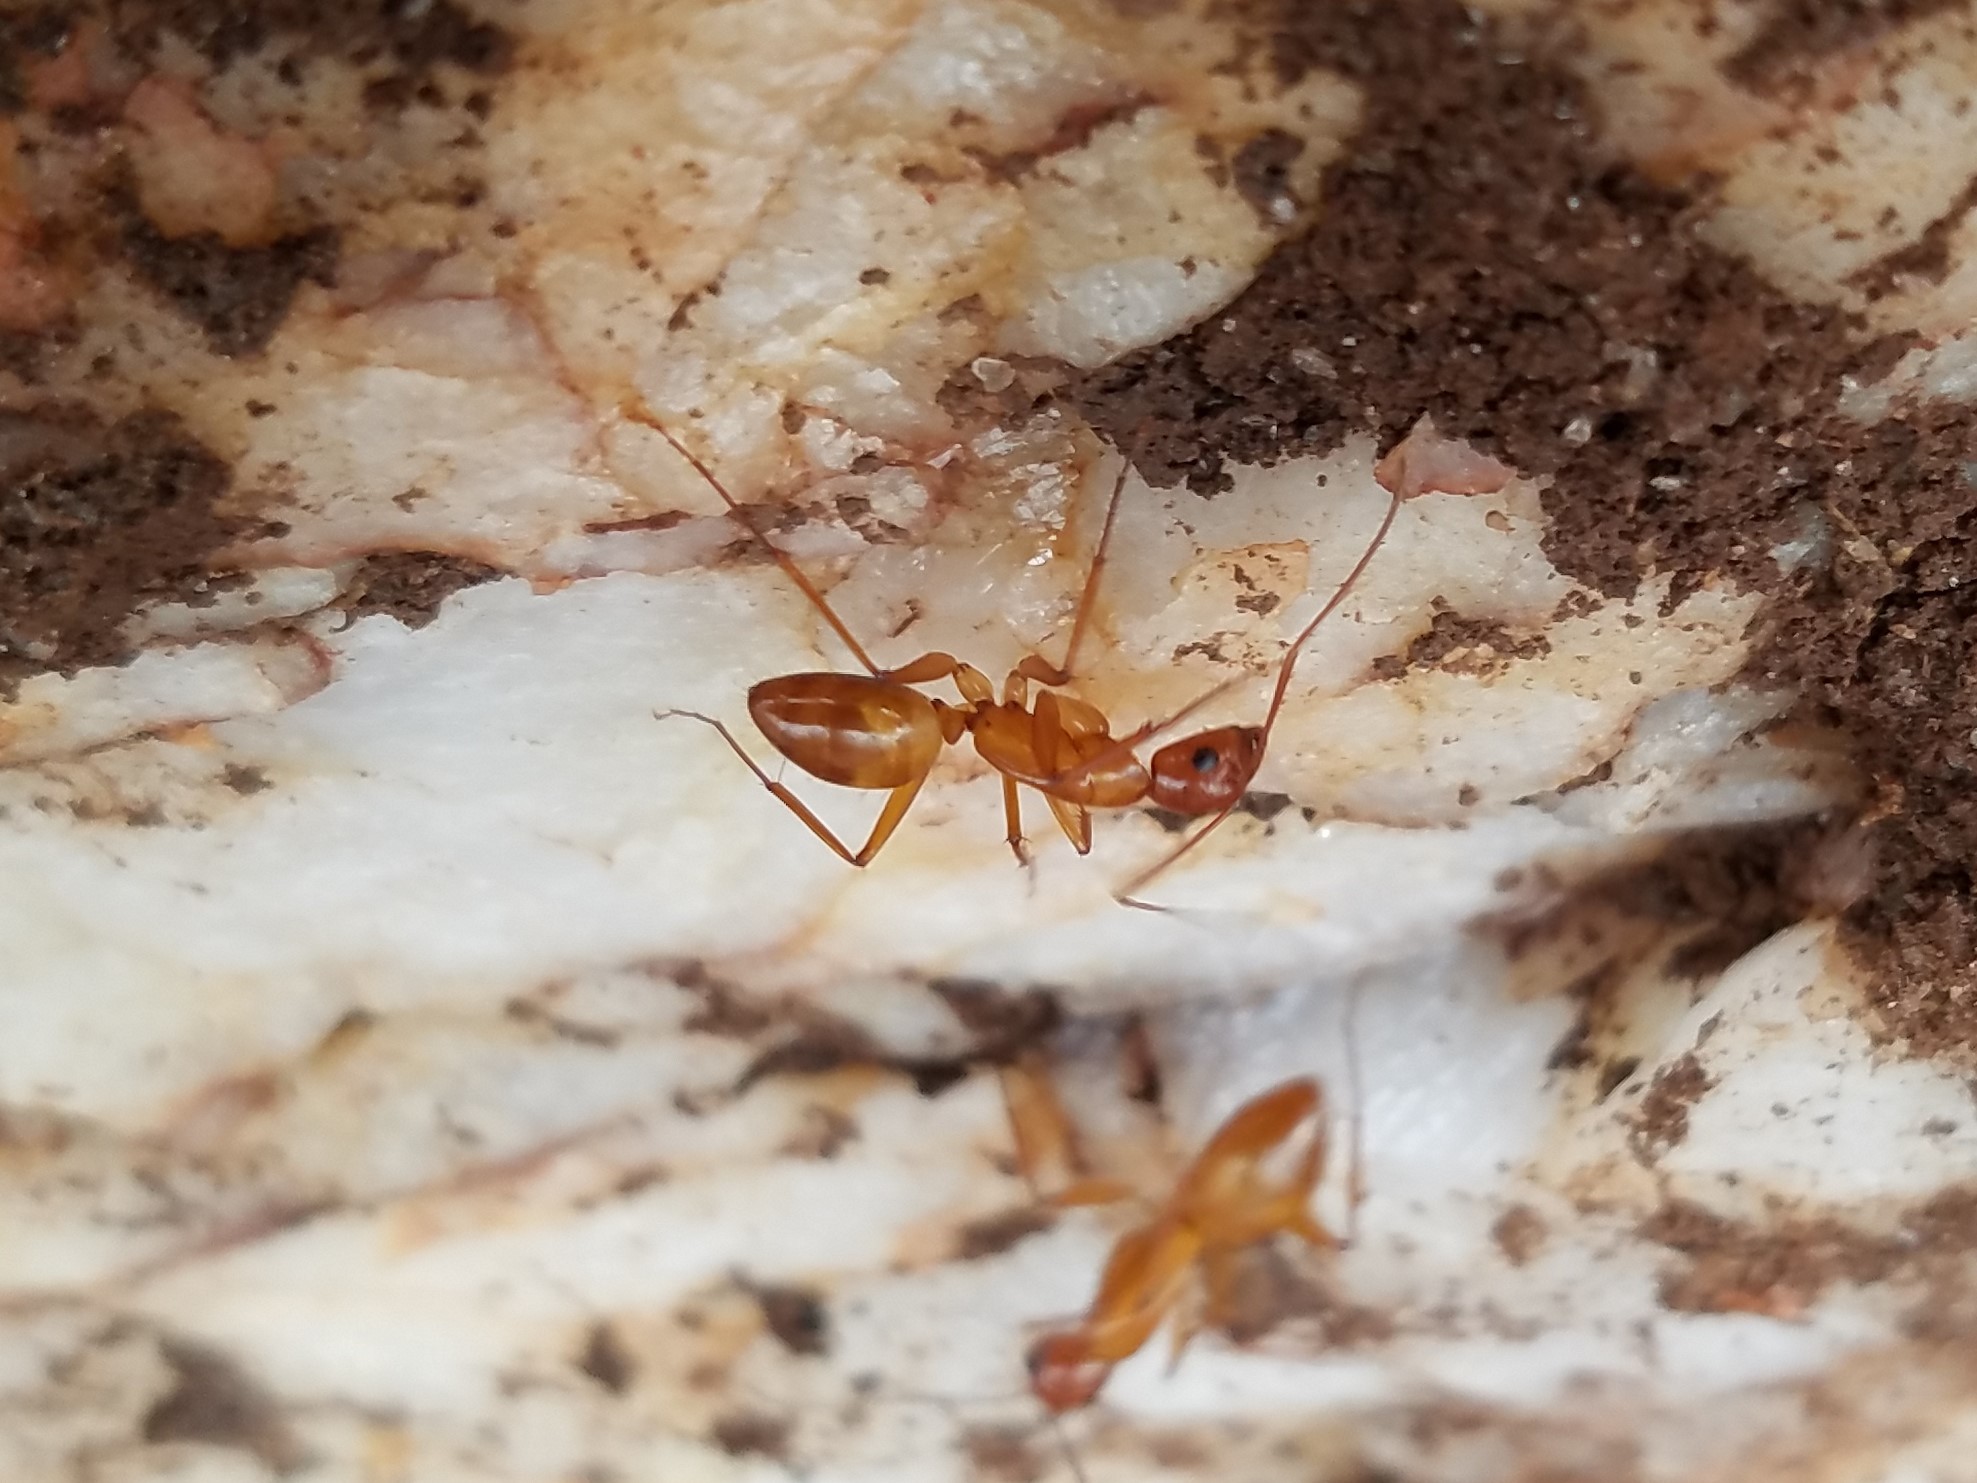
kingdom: Animalia
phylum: Arthropoda
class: Insecta
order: Hymenoptera
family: Formicidae
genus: Camponotus
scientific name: Camponotus castaneus
